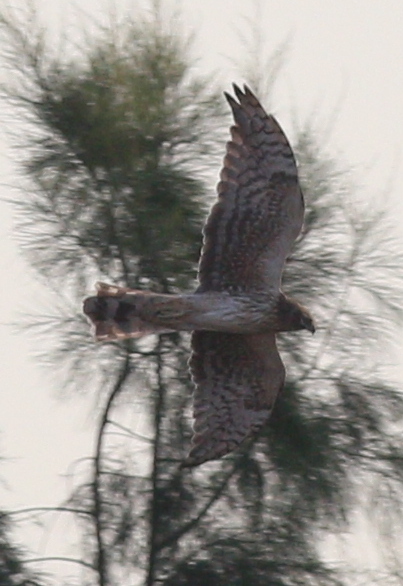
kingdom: Animalia
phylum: Chordata
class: Aves
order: Accipitriformes
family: Accipitridae
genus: Circus
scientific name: Circus macrourus
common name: Pallid harrier
